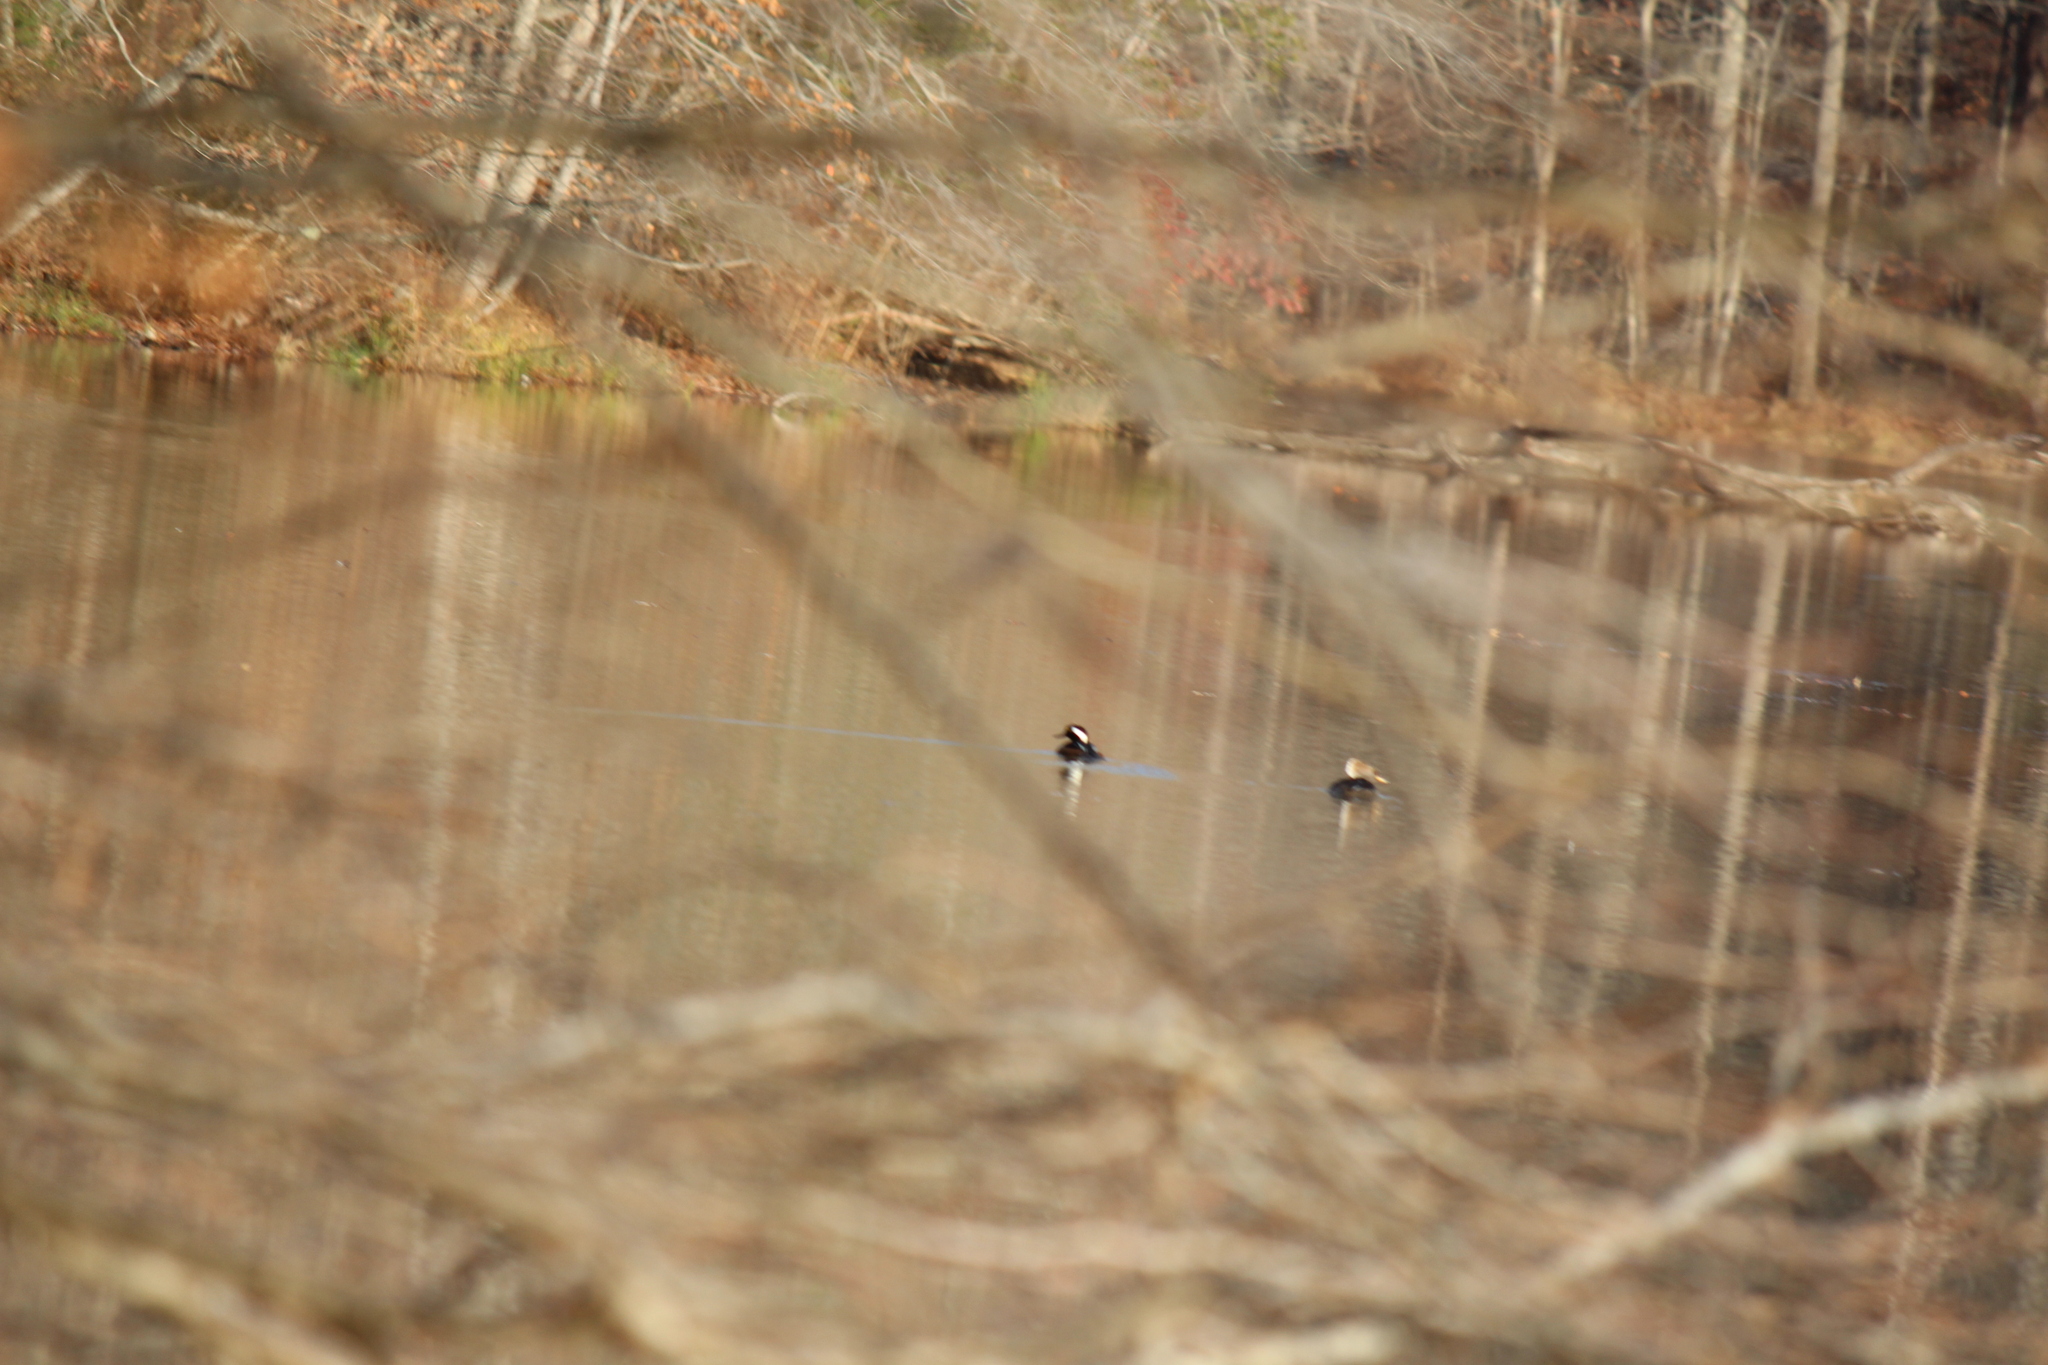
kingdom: Animalia
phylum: Chordata
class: Aves
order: Anseriformes
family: Anatidae
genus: Lophodytes
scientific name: Lophodytes cucullatus
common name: Hooded merganser
